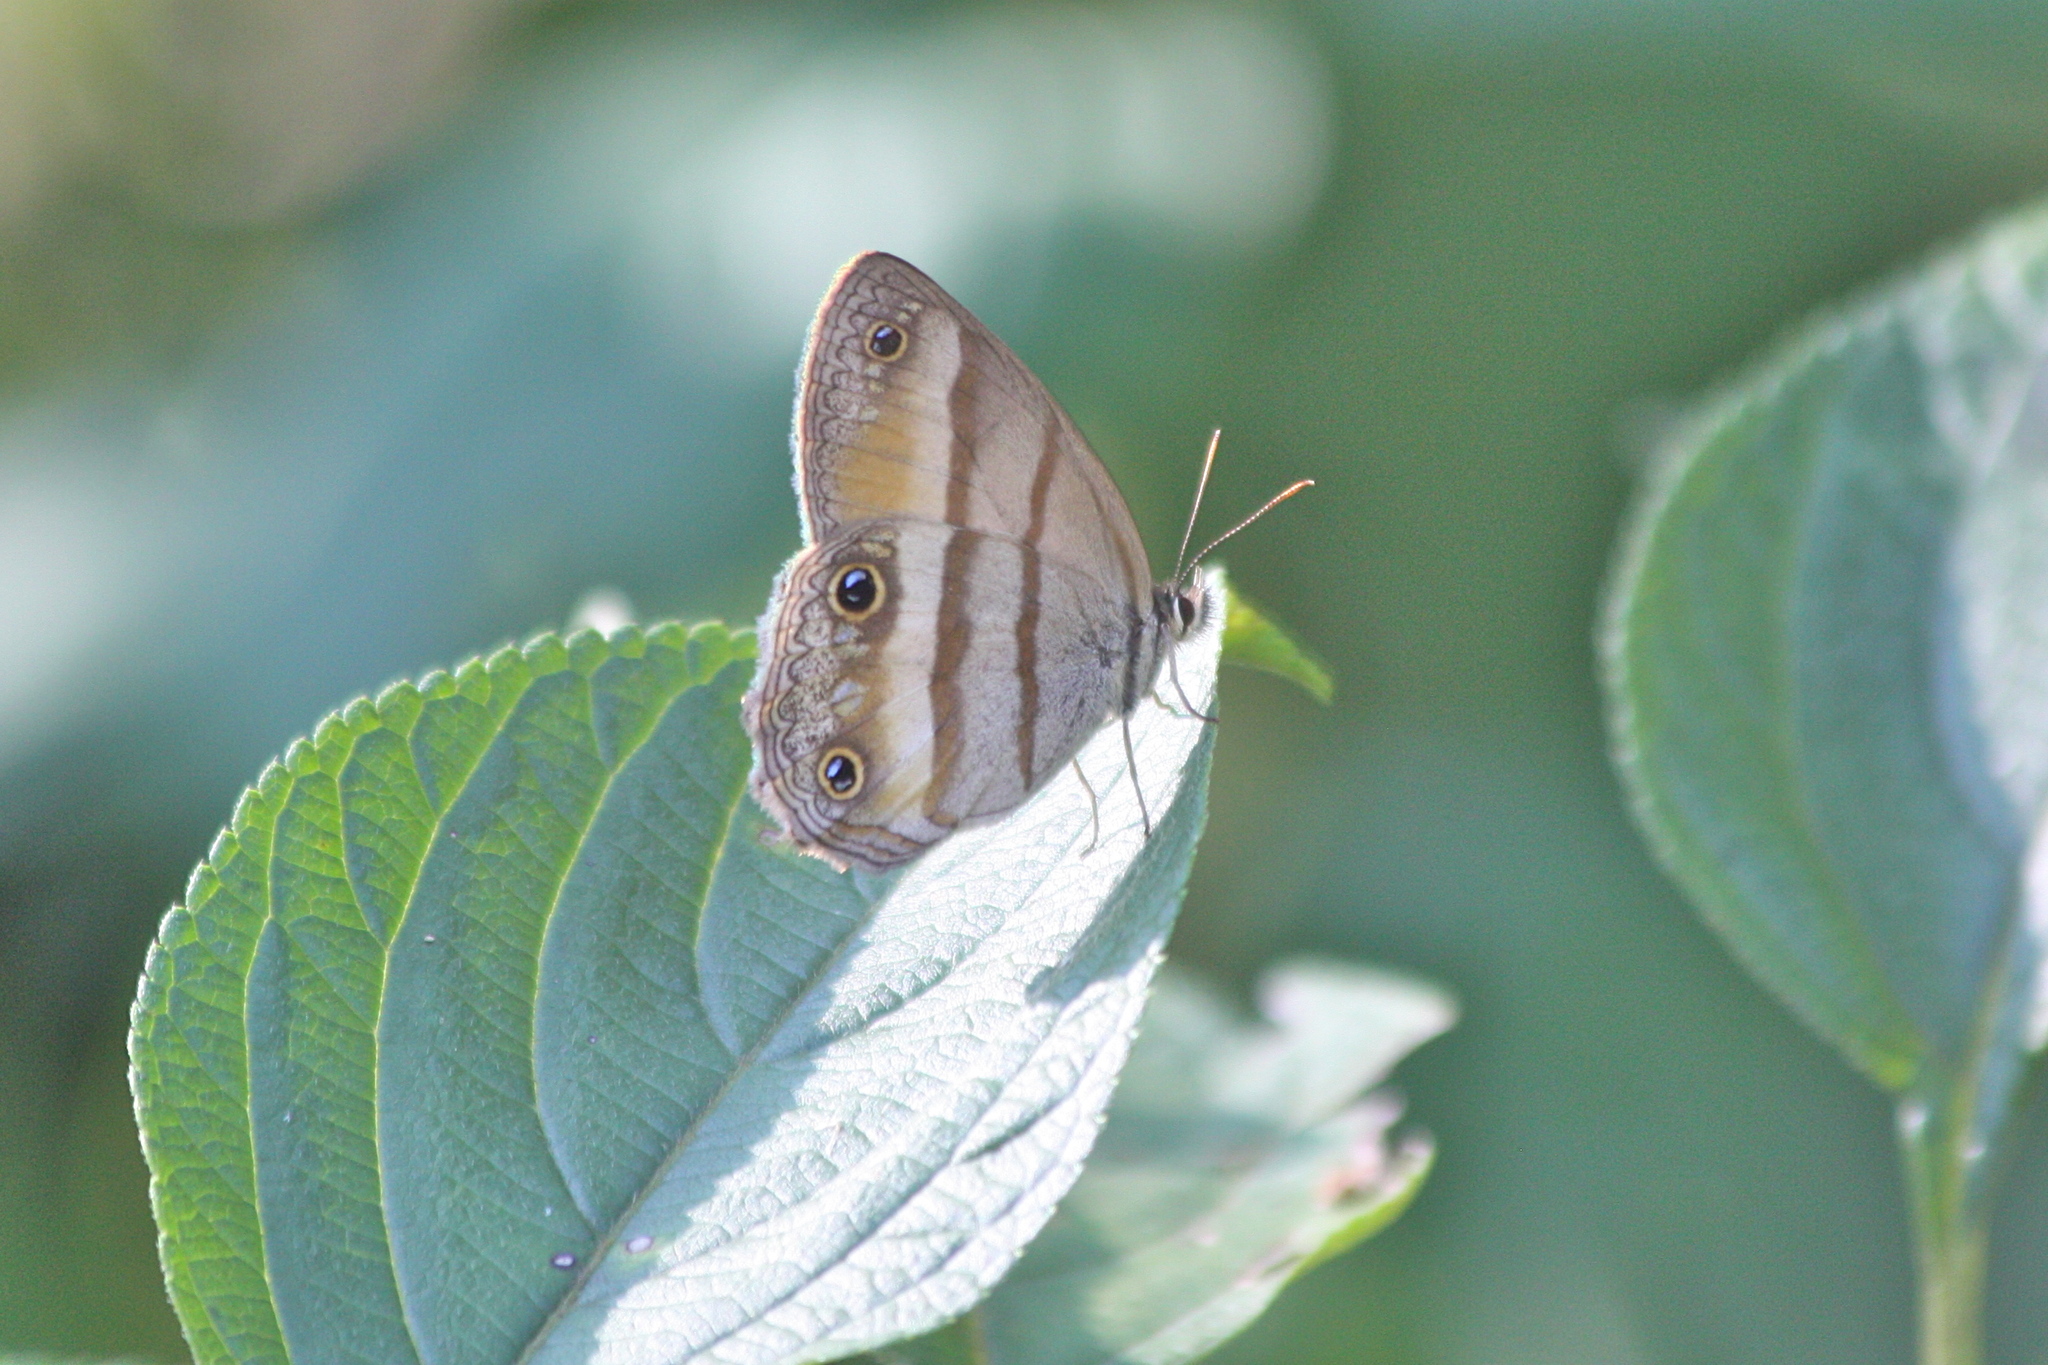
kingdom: Animalia
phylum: Arthropoda
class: Insecta
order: Lepidoptera
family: Nymphalidae
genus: Argyreuptychia
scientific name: Argyreuptychia penelope
